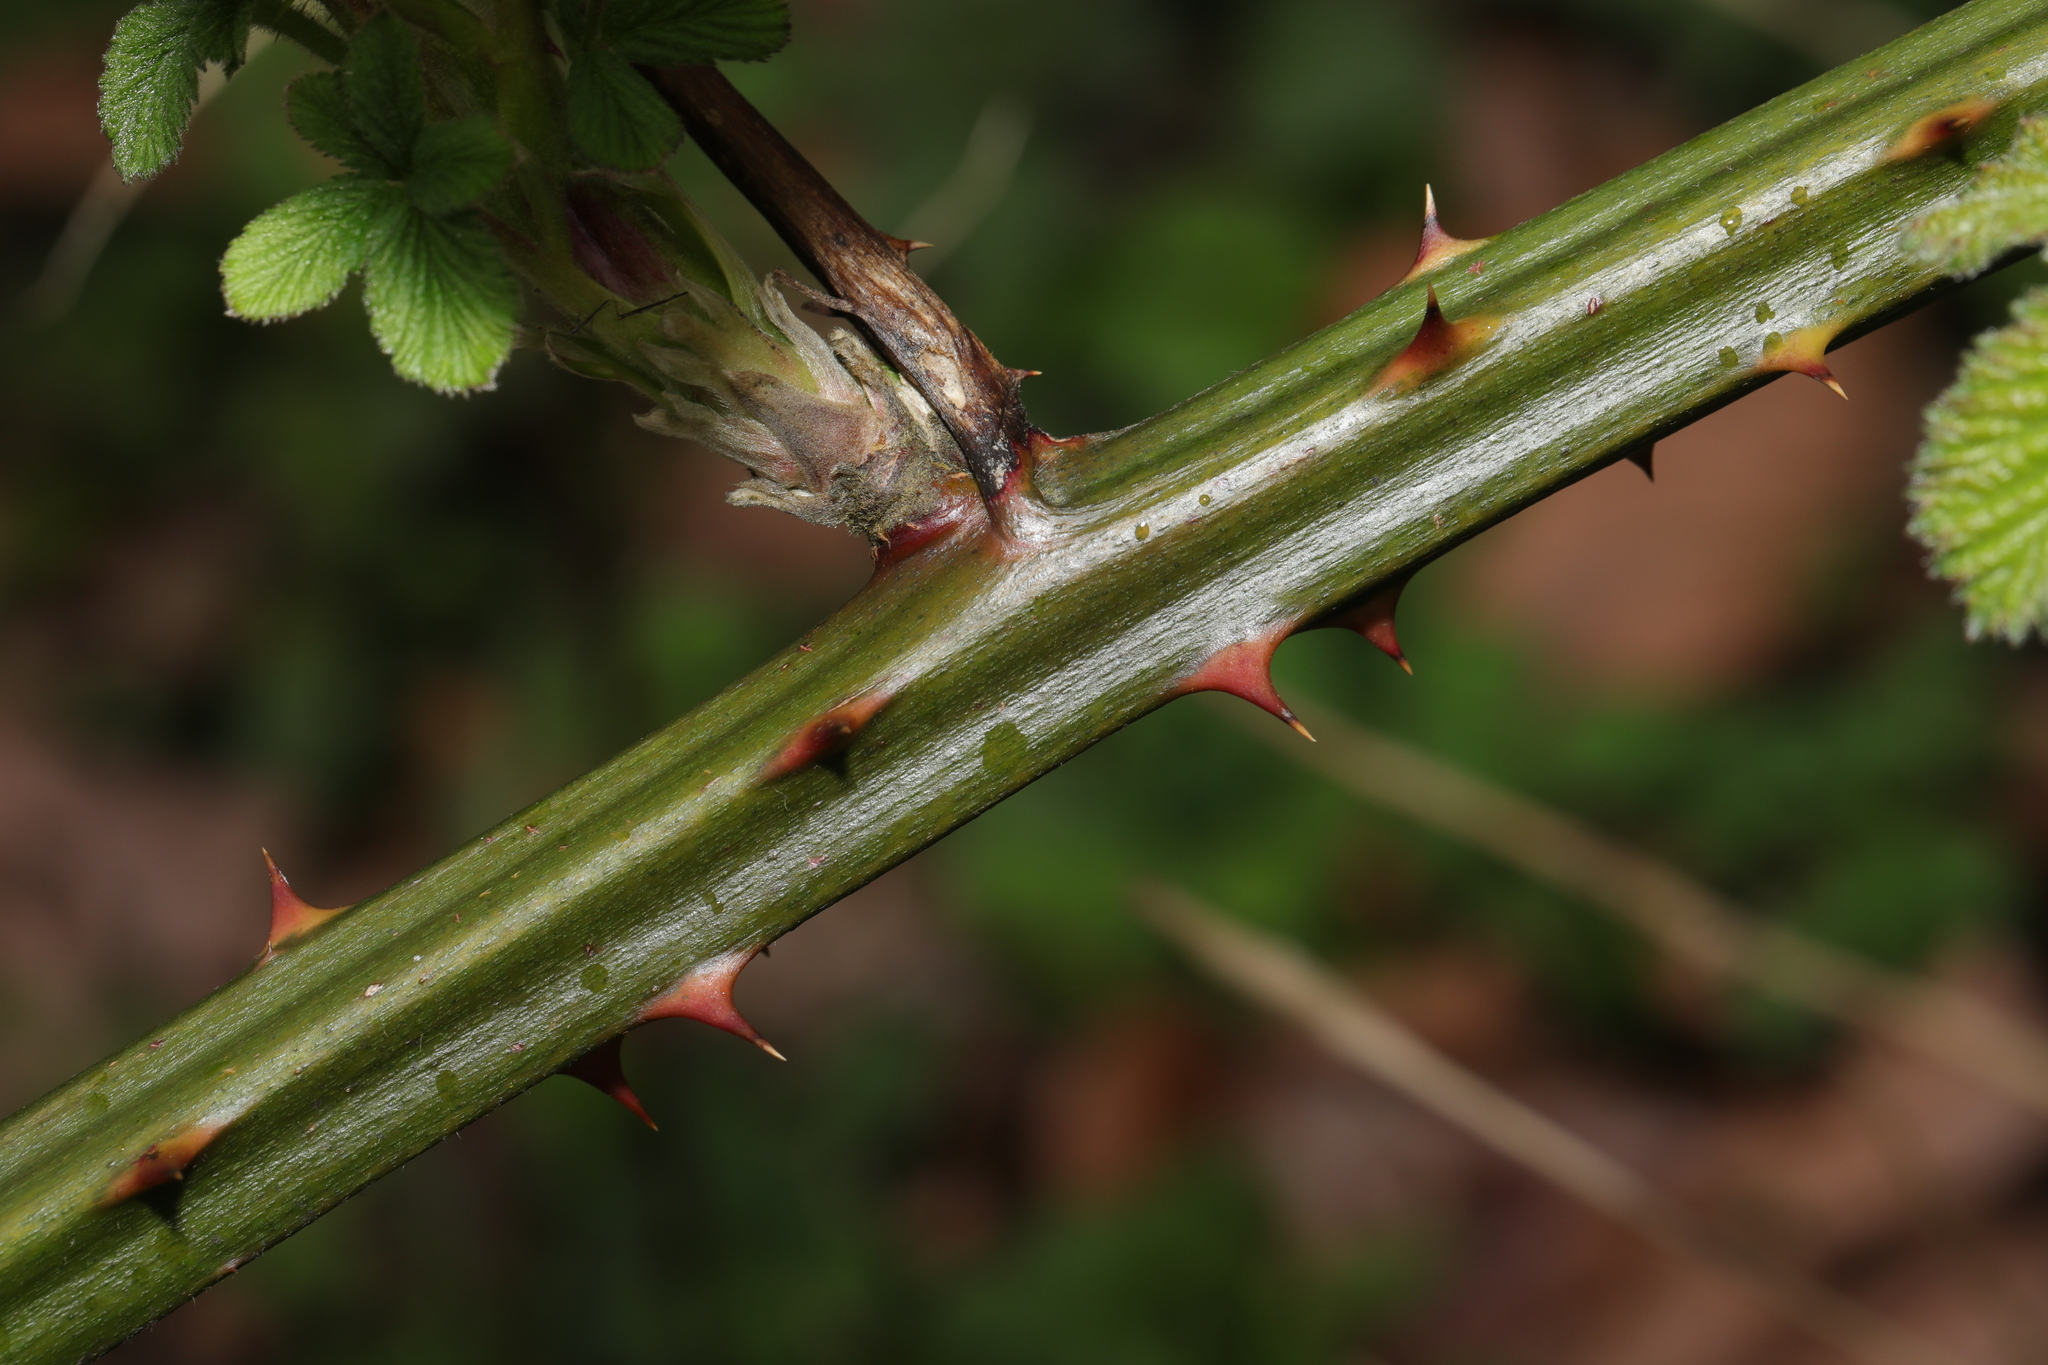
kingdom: Plantae
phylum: Tracheophyta
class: Magnoliopsida
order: Rosales
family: Rosaceae
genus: Rubus
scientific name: Rubus armeniacus
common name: Himalayan blackberry
